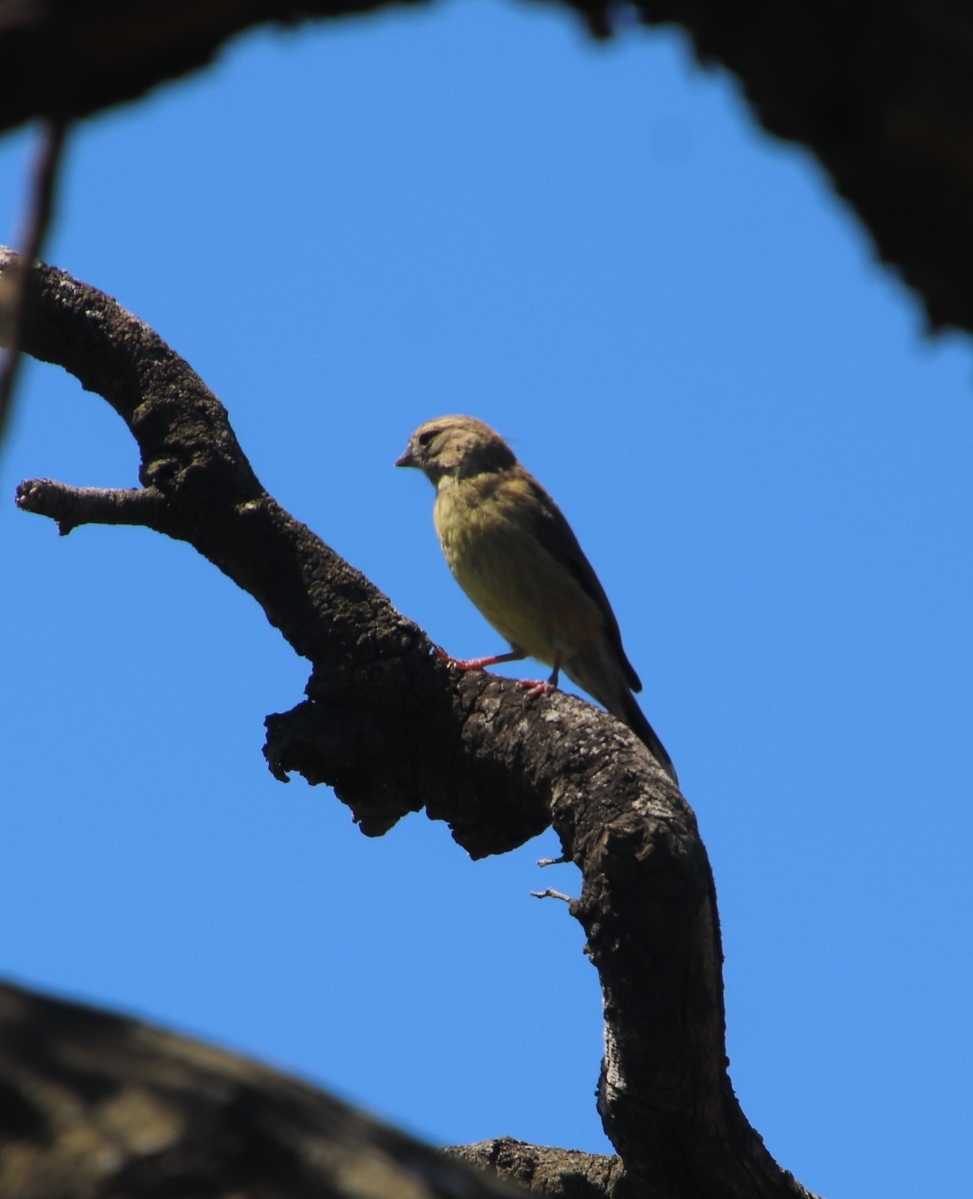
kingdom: Animalia
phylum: Chordata
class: Aves
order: Passeriformes
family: Fringillidae
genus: Crithagra
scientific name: Crithagra totta
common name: Cape siskin
